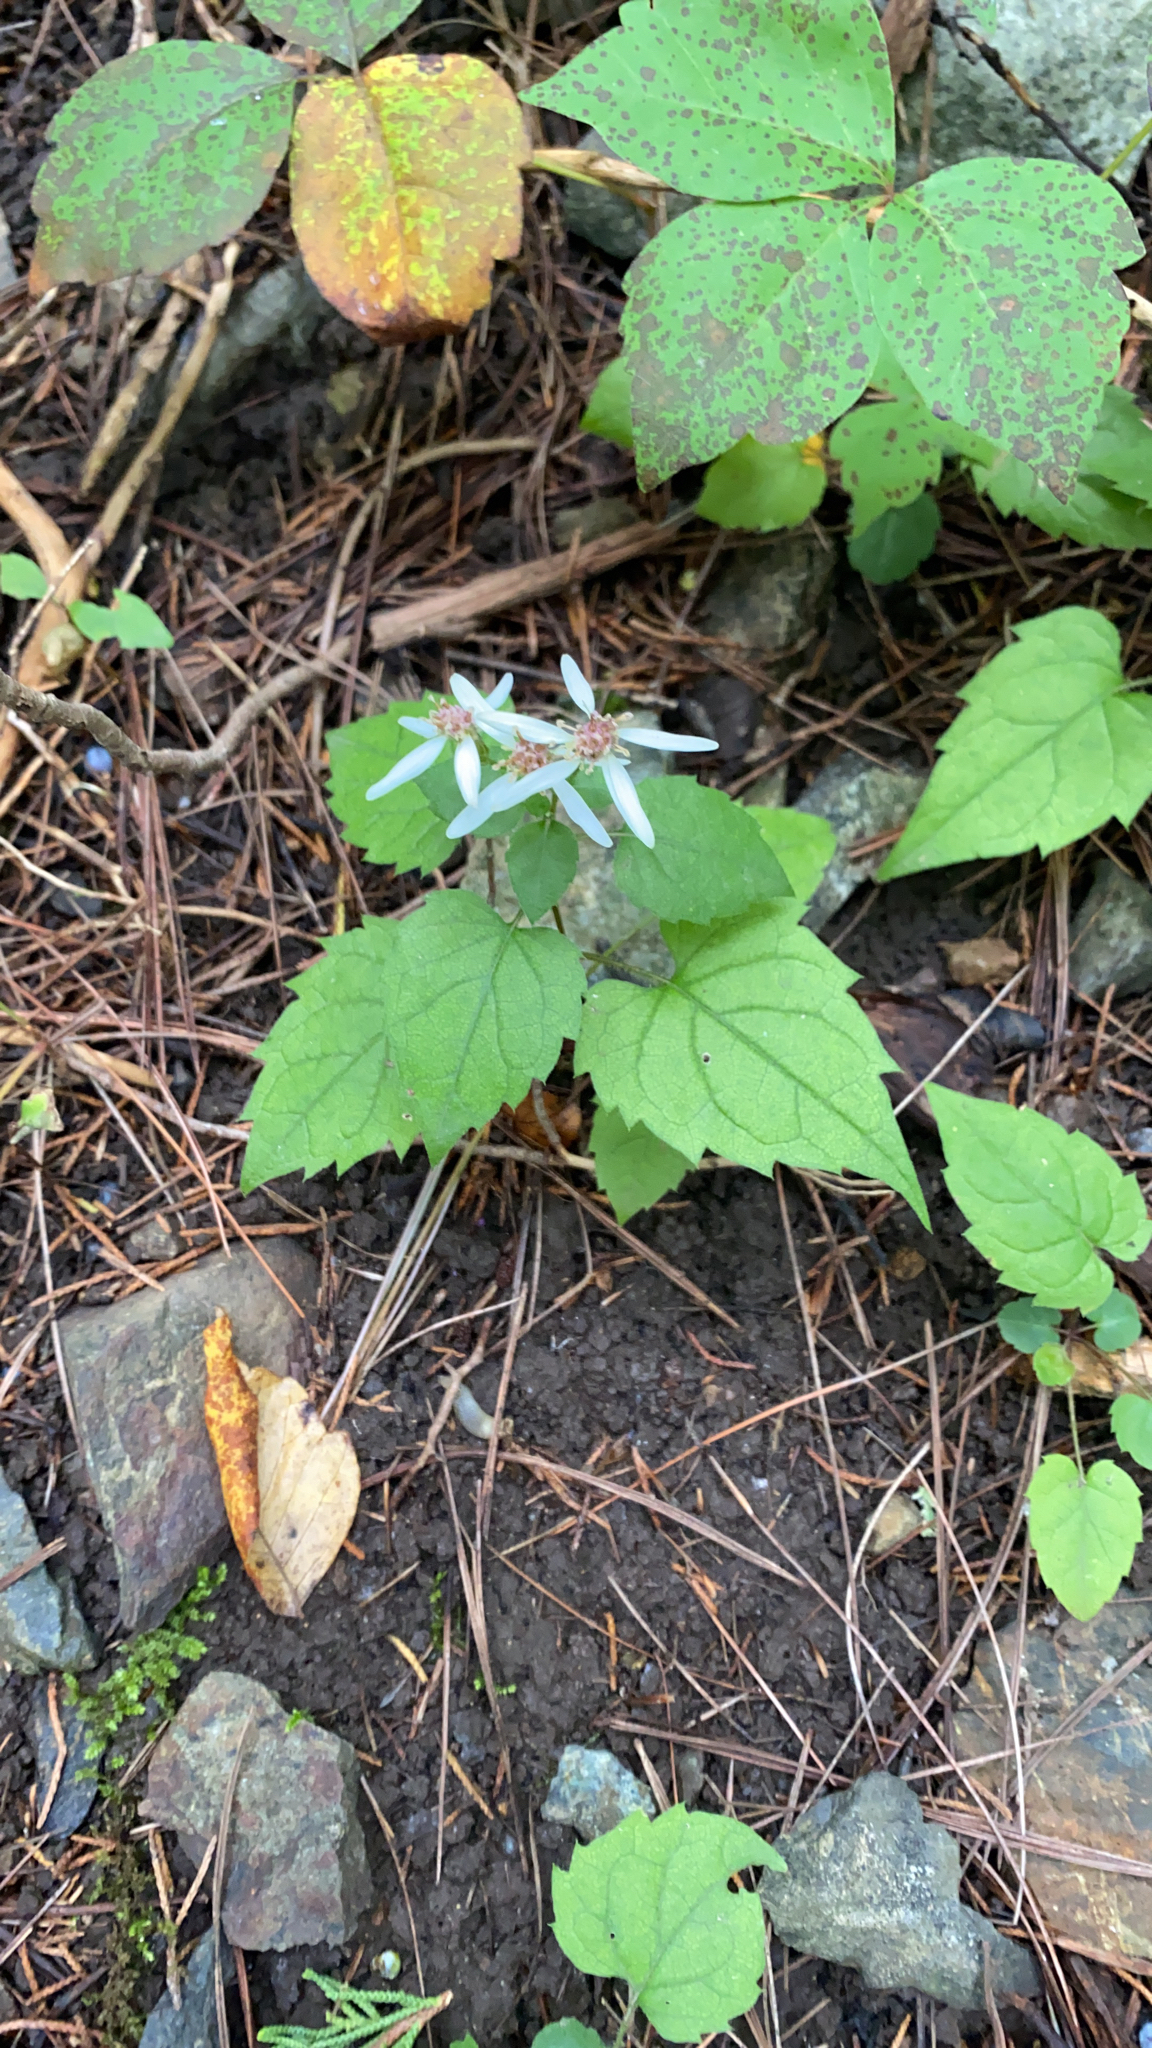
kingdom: Plantae
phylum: Tracheophyta
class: Magnoliopsida
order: Asterales
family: Asteraceae
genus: Eurybia
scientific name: Eurybia divaricata
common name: White wood aster
